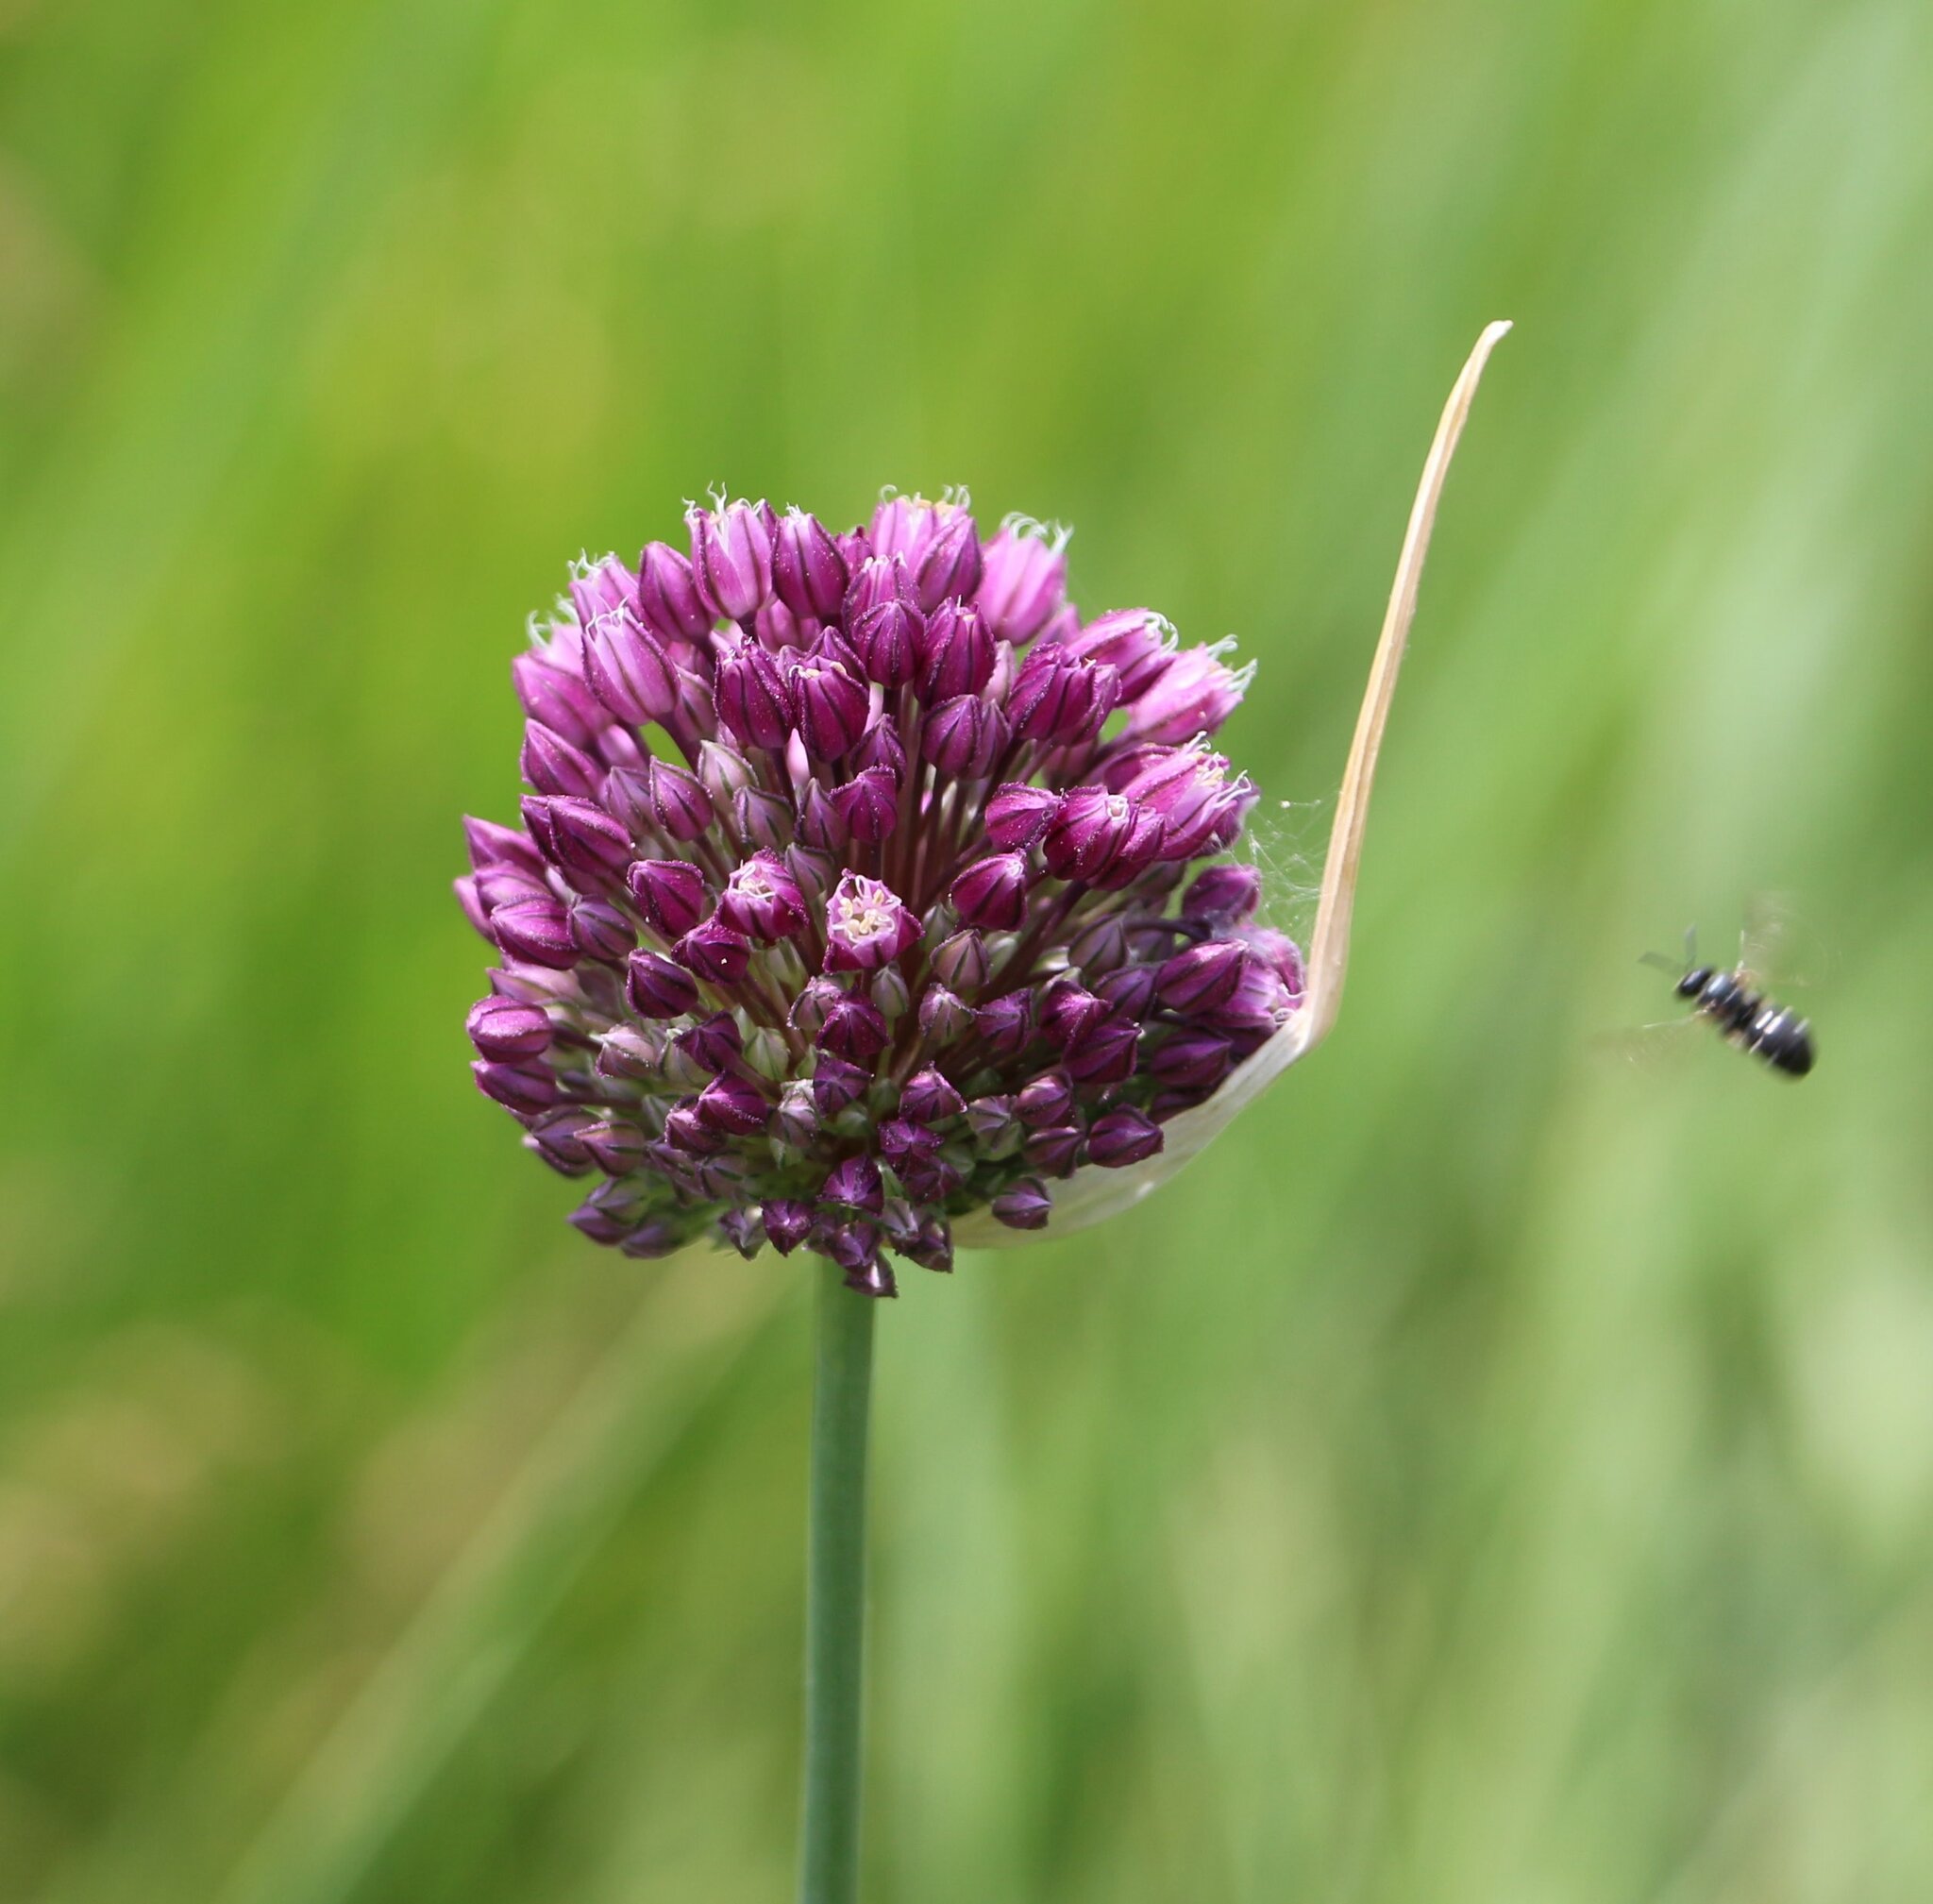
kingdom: Plantae
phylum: Tracheophyta
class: Liliopsida
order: Asparagales
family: Amaryllidaceae
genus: Allium
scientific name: Allium rotundum
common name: Sand leek
